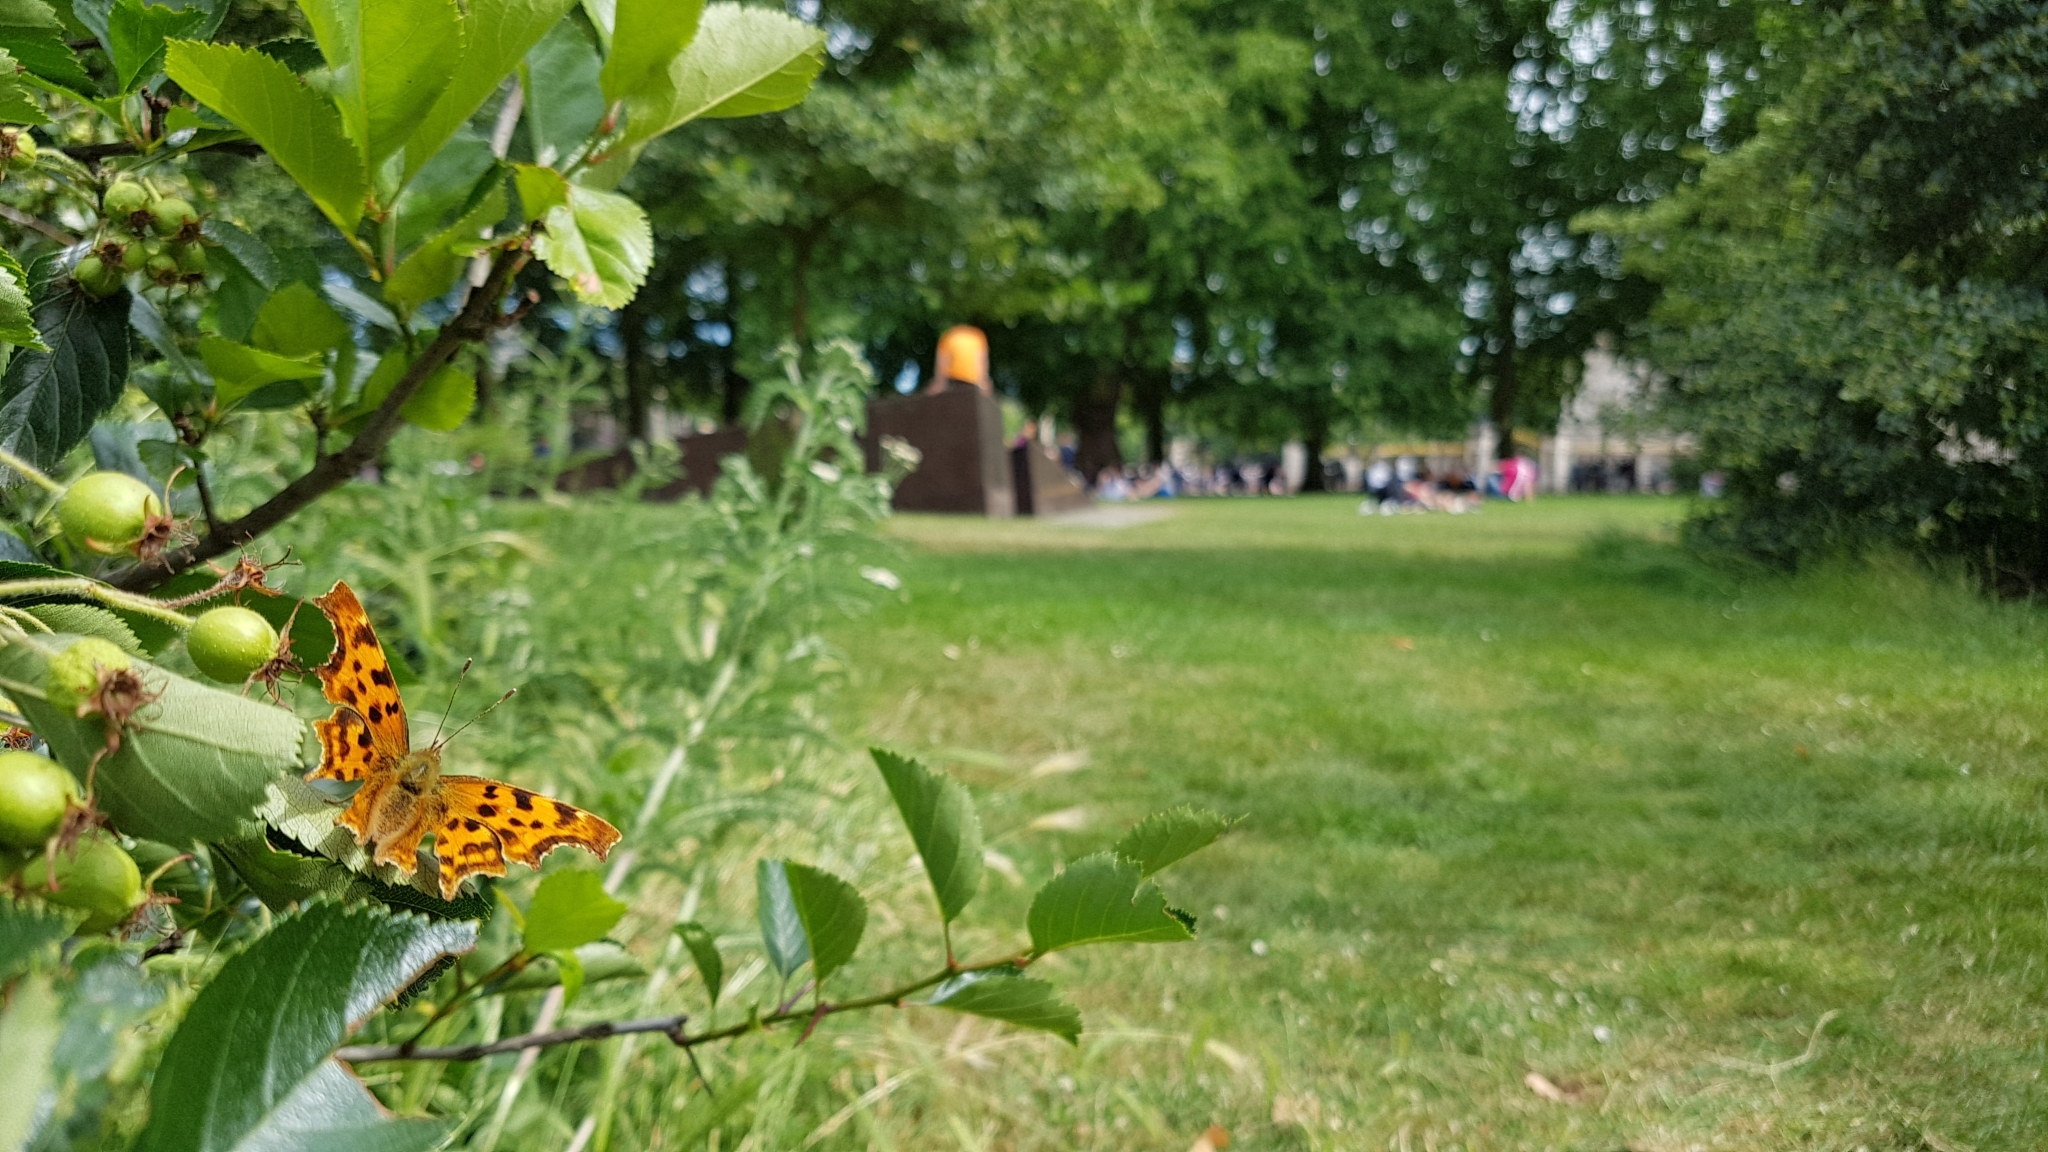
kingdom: Animalia
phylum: Arthropoda
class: Insecta
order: Lepidoptera
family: Nymphalidae
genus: Polygonia
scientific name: Polygonia c-album
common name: Comma
